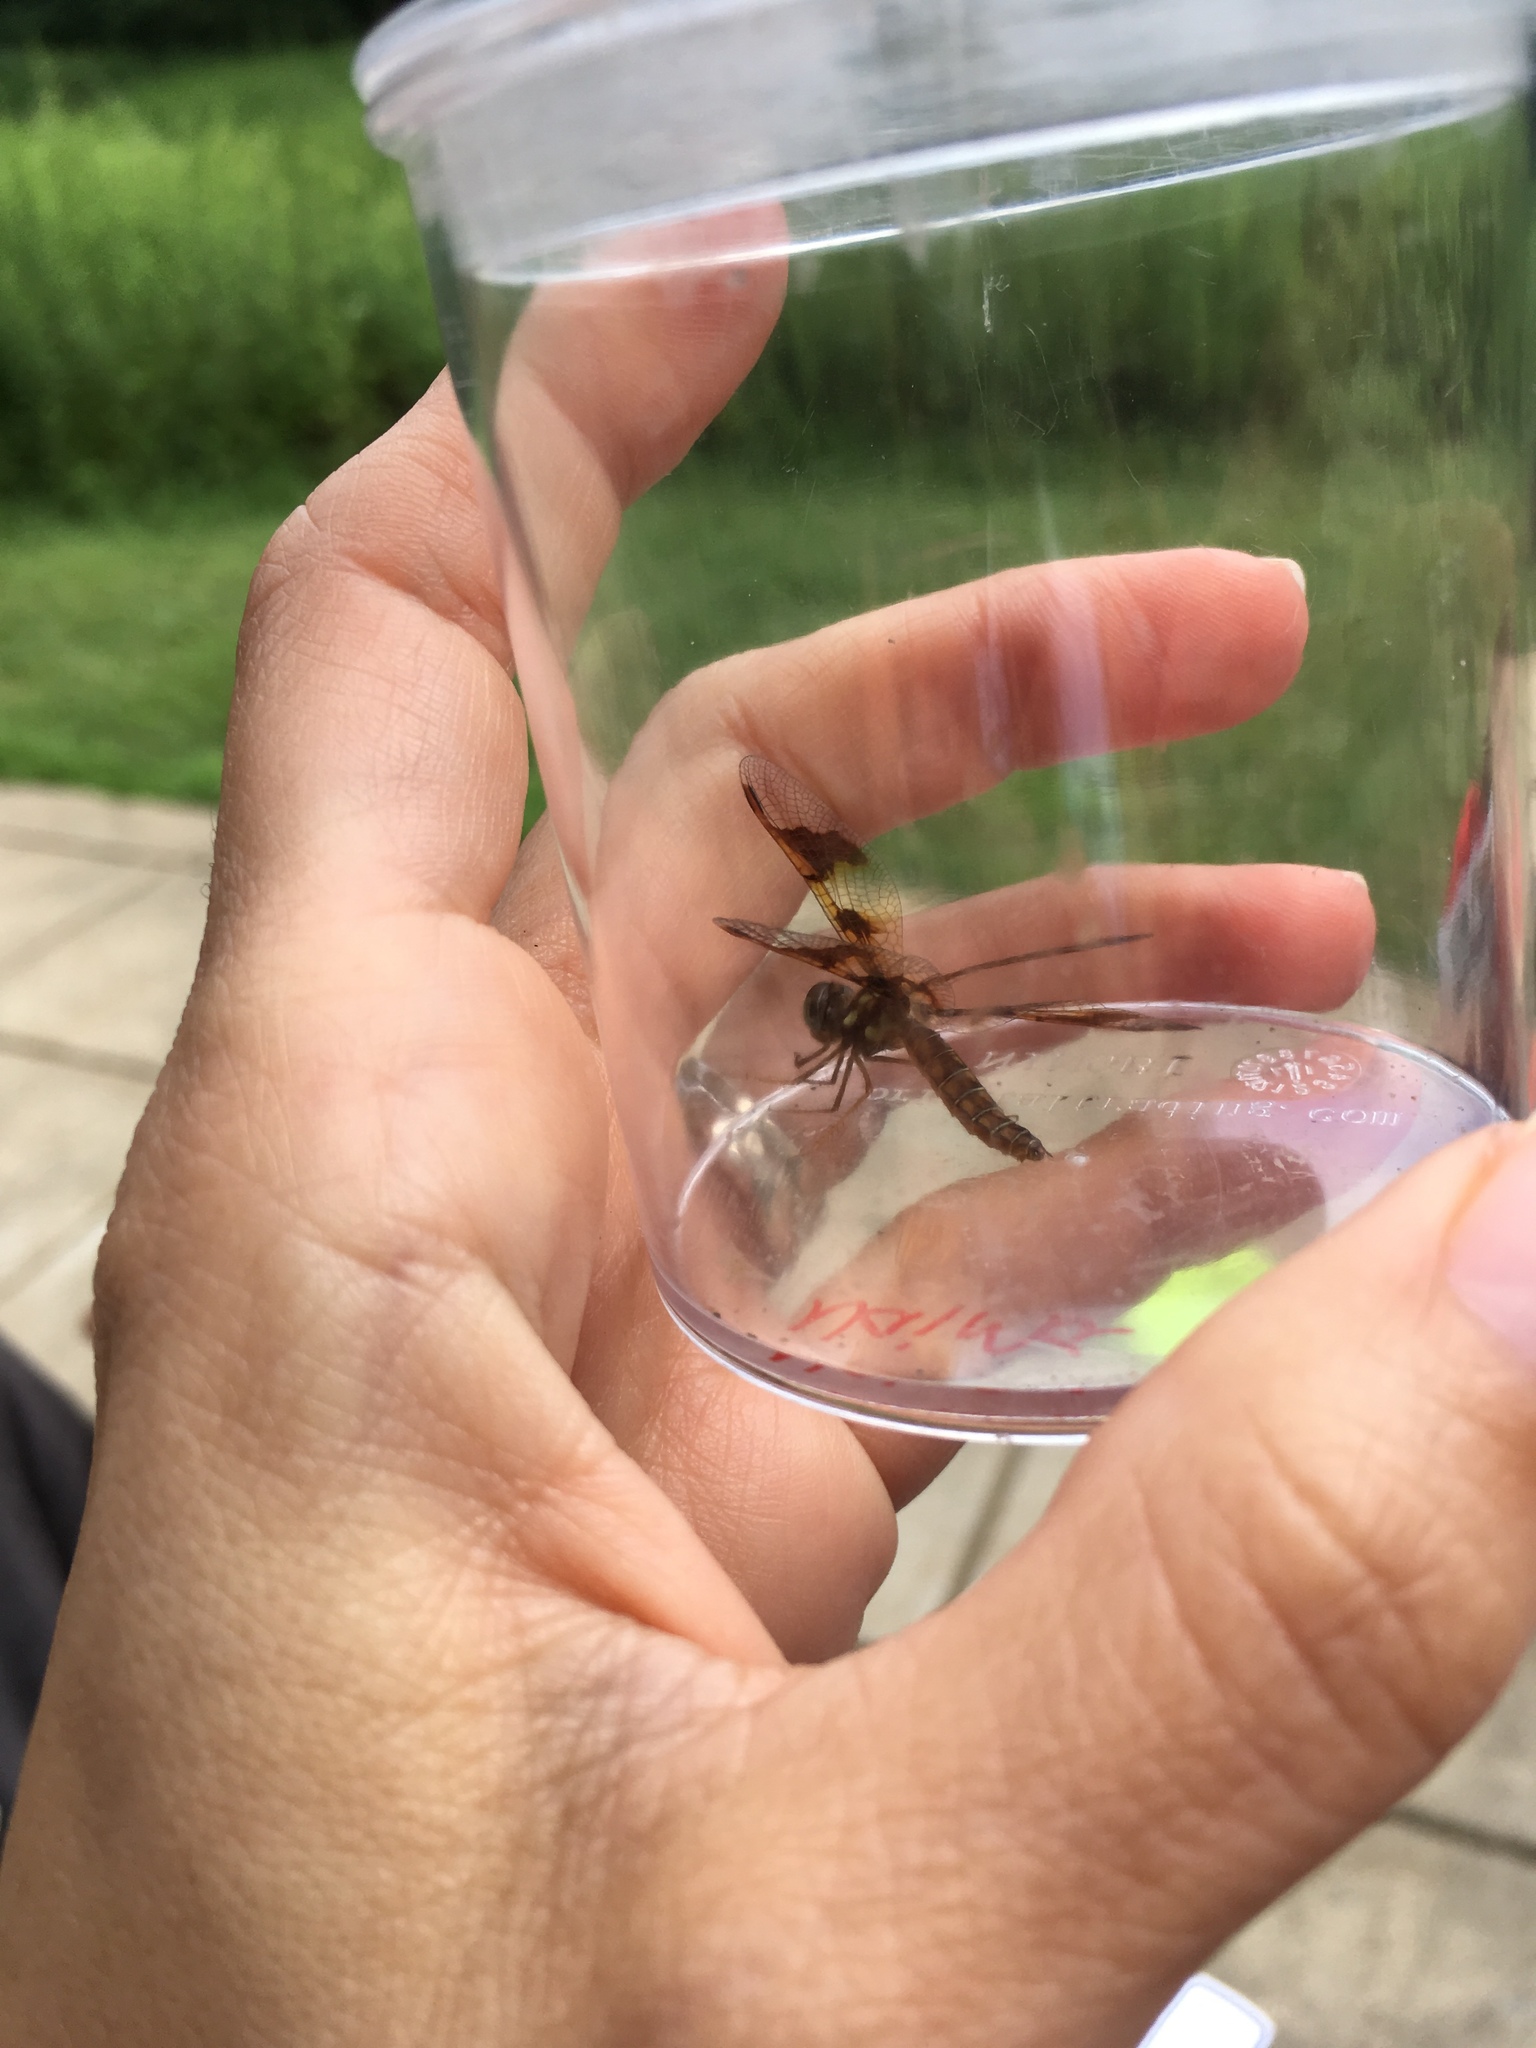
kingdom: Animalia
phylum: Arthropoda
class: Insecta
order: Odonata
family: Libellulidae
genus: Perithemis
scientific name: Perithemis tenera
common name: Eastern amberwing
